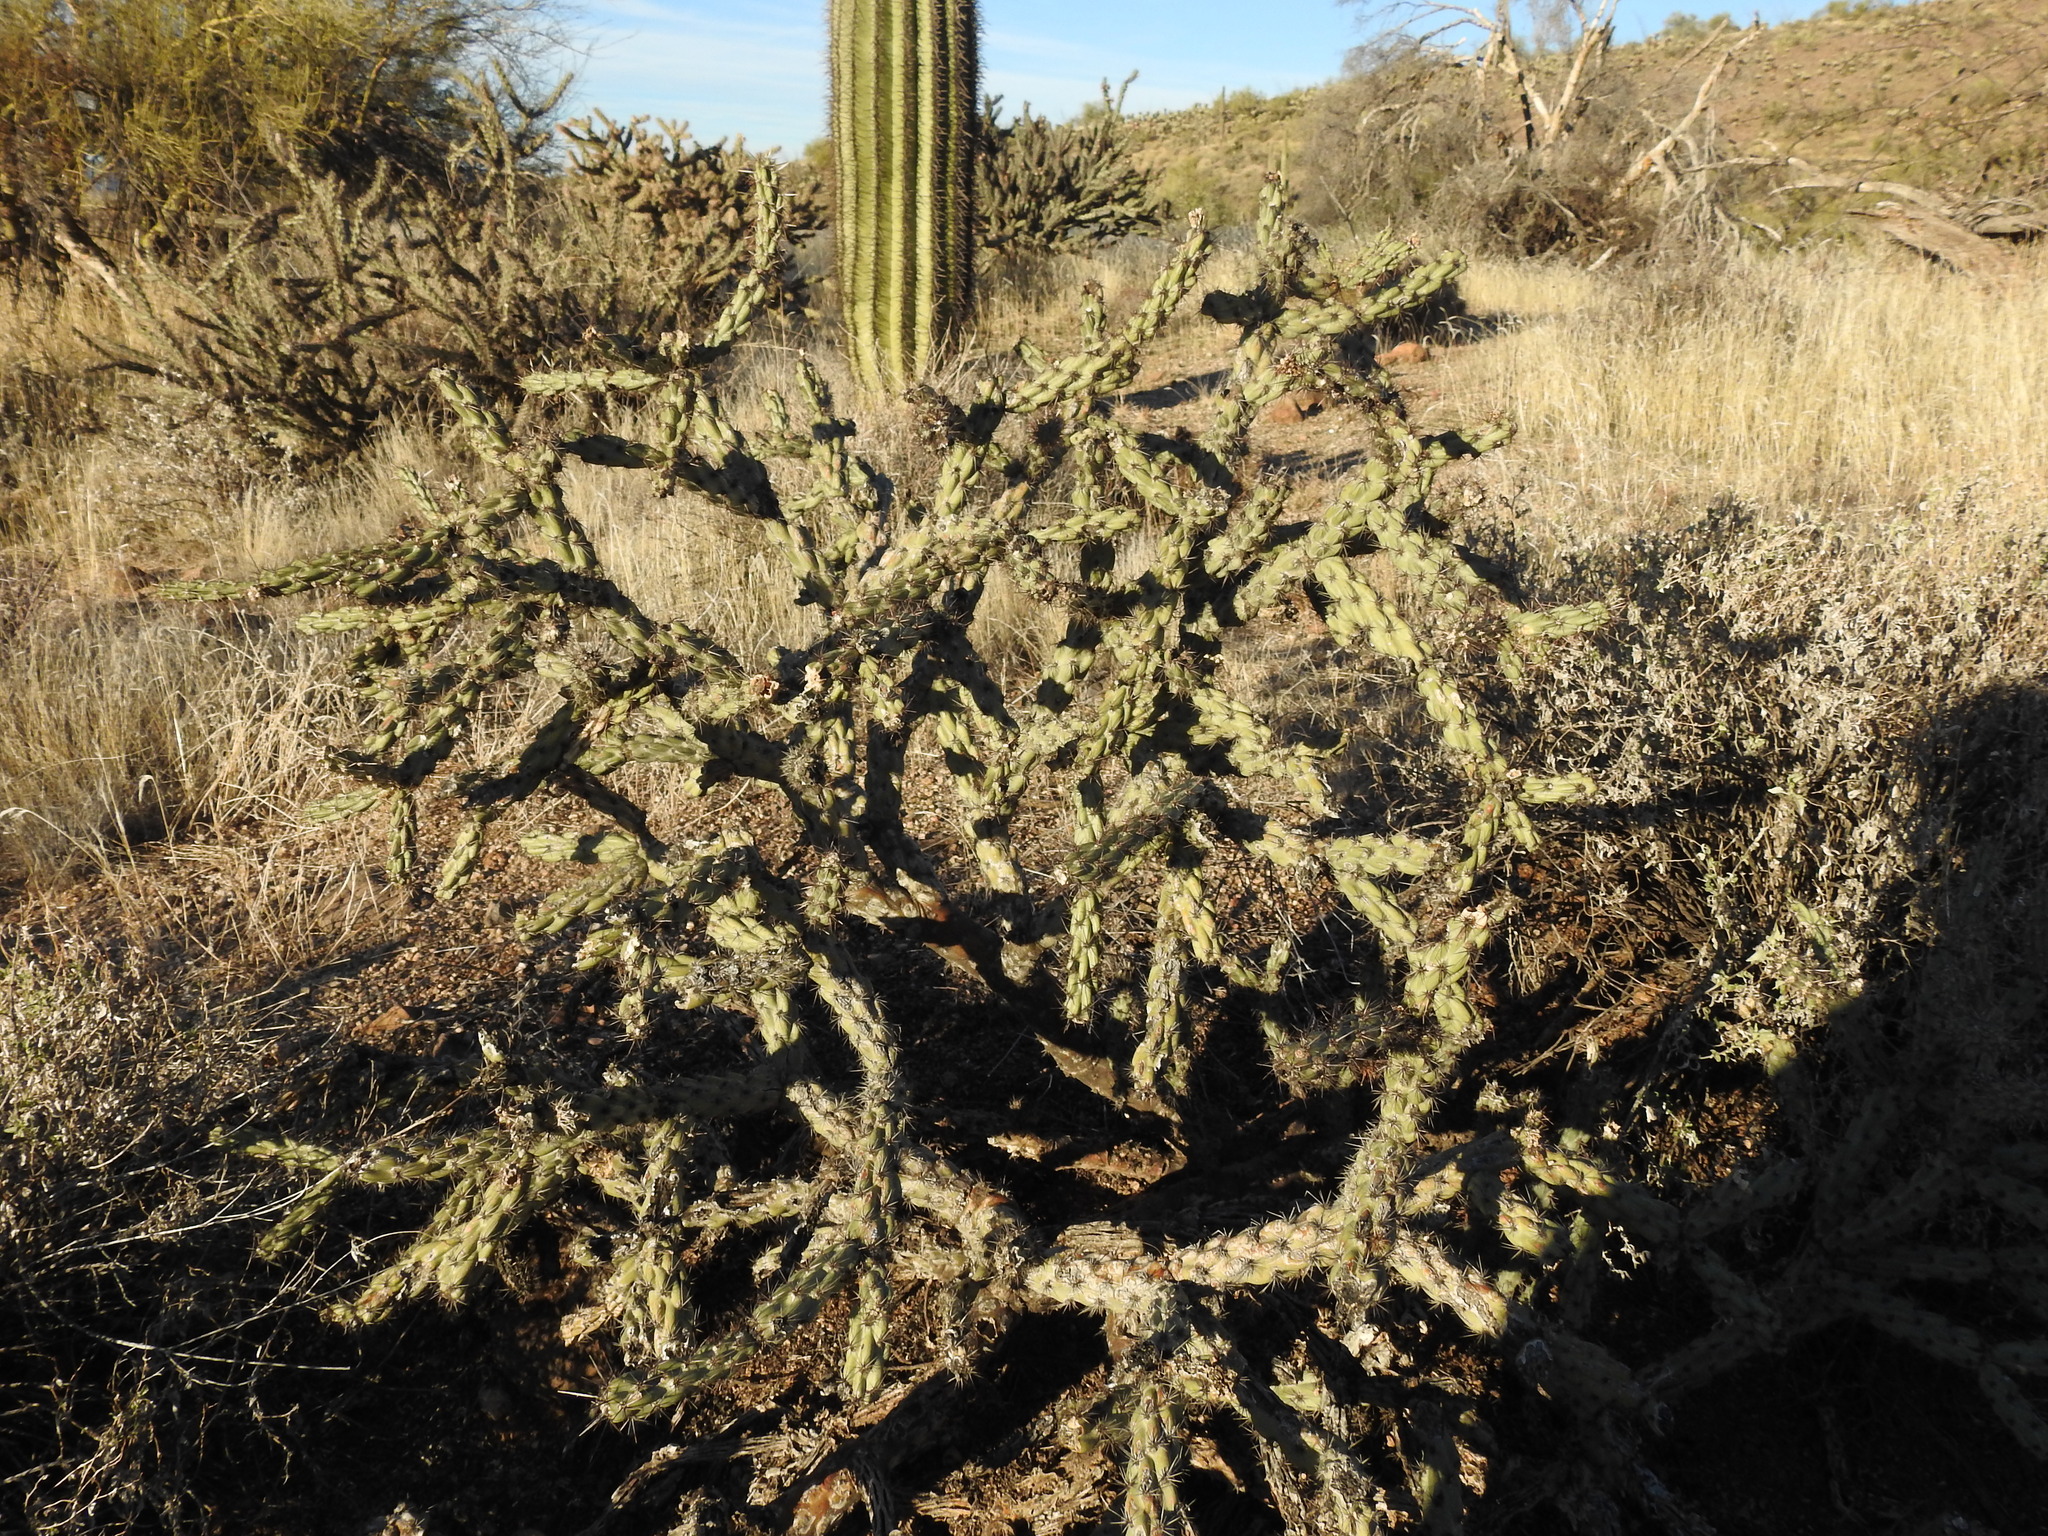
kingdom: Plantae
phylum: Tracheophyta
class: Magnoliopsida
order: Caryophyllales
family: Cactaceae
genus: Cylindropuntia
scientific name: Cylindropuntia acanthocarpa
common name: Buckhorn cholla
